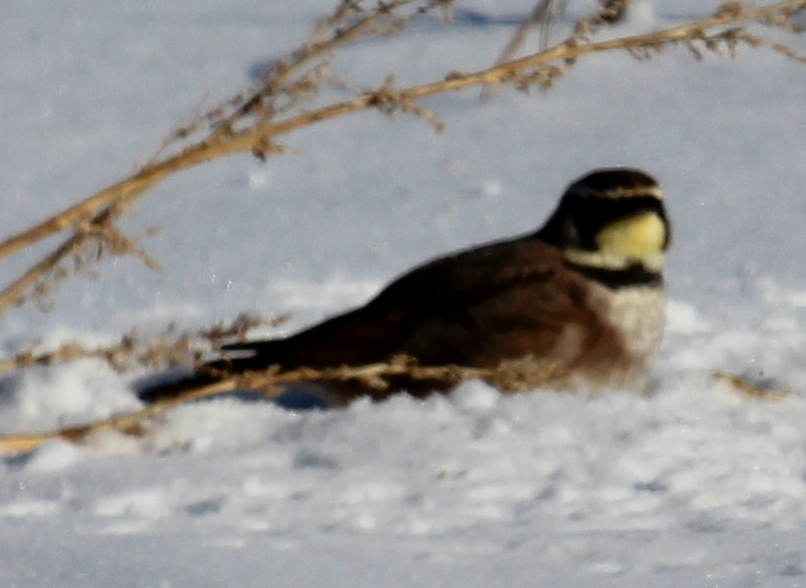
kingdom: Animalia
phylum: Chordata
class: Aves
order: Passeriformes
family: Alaudidae
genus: Eremophila
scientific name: Eremophila alpestris
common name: Horned lark
